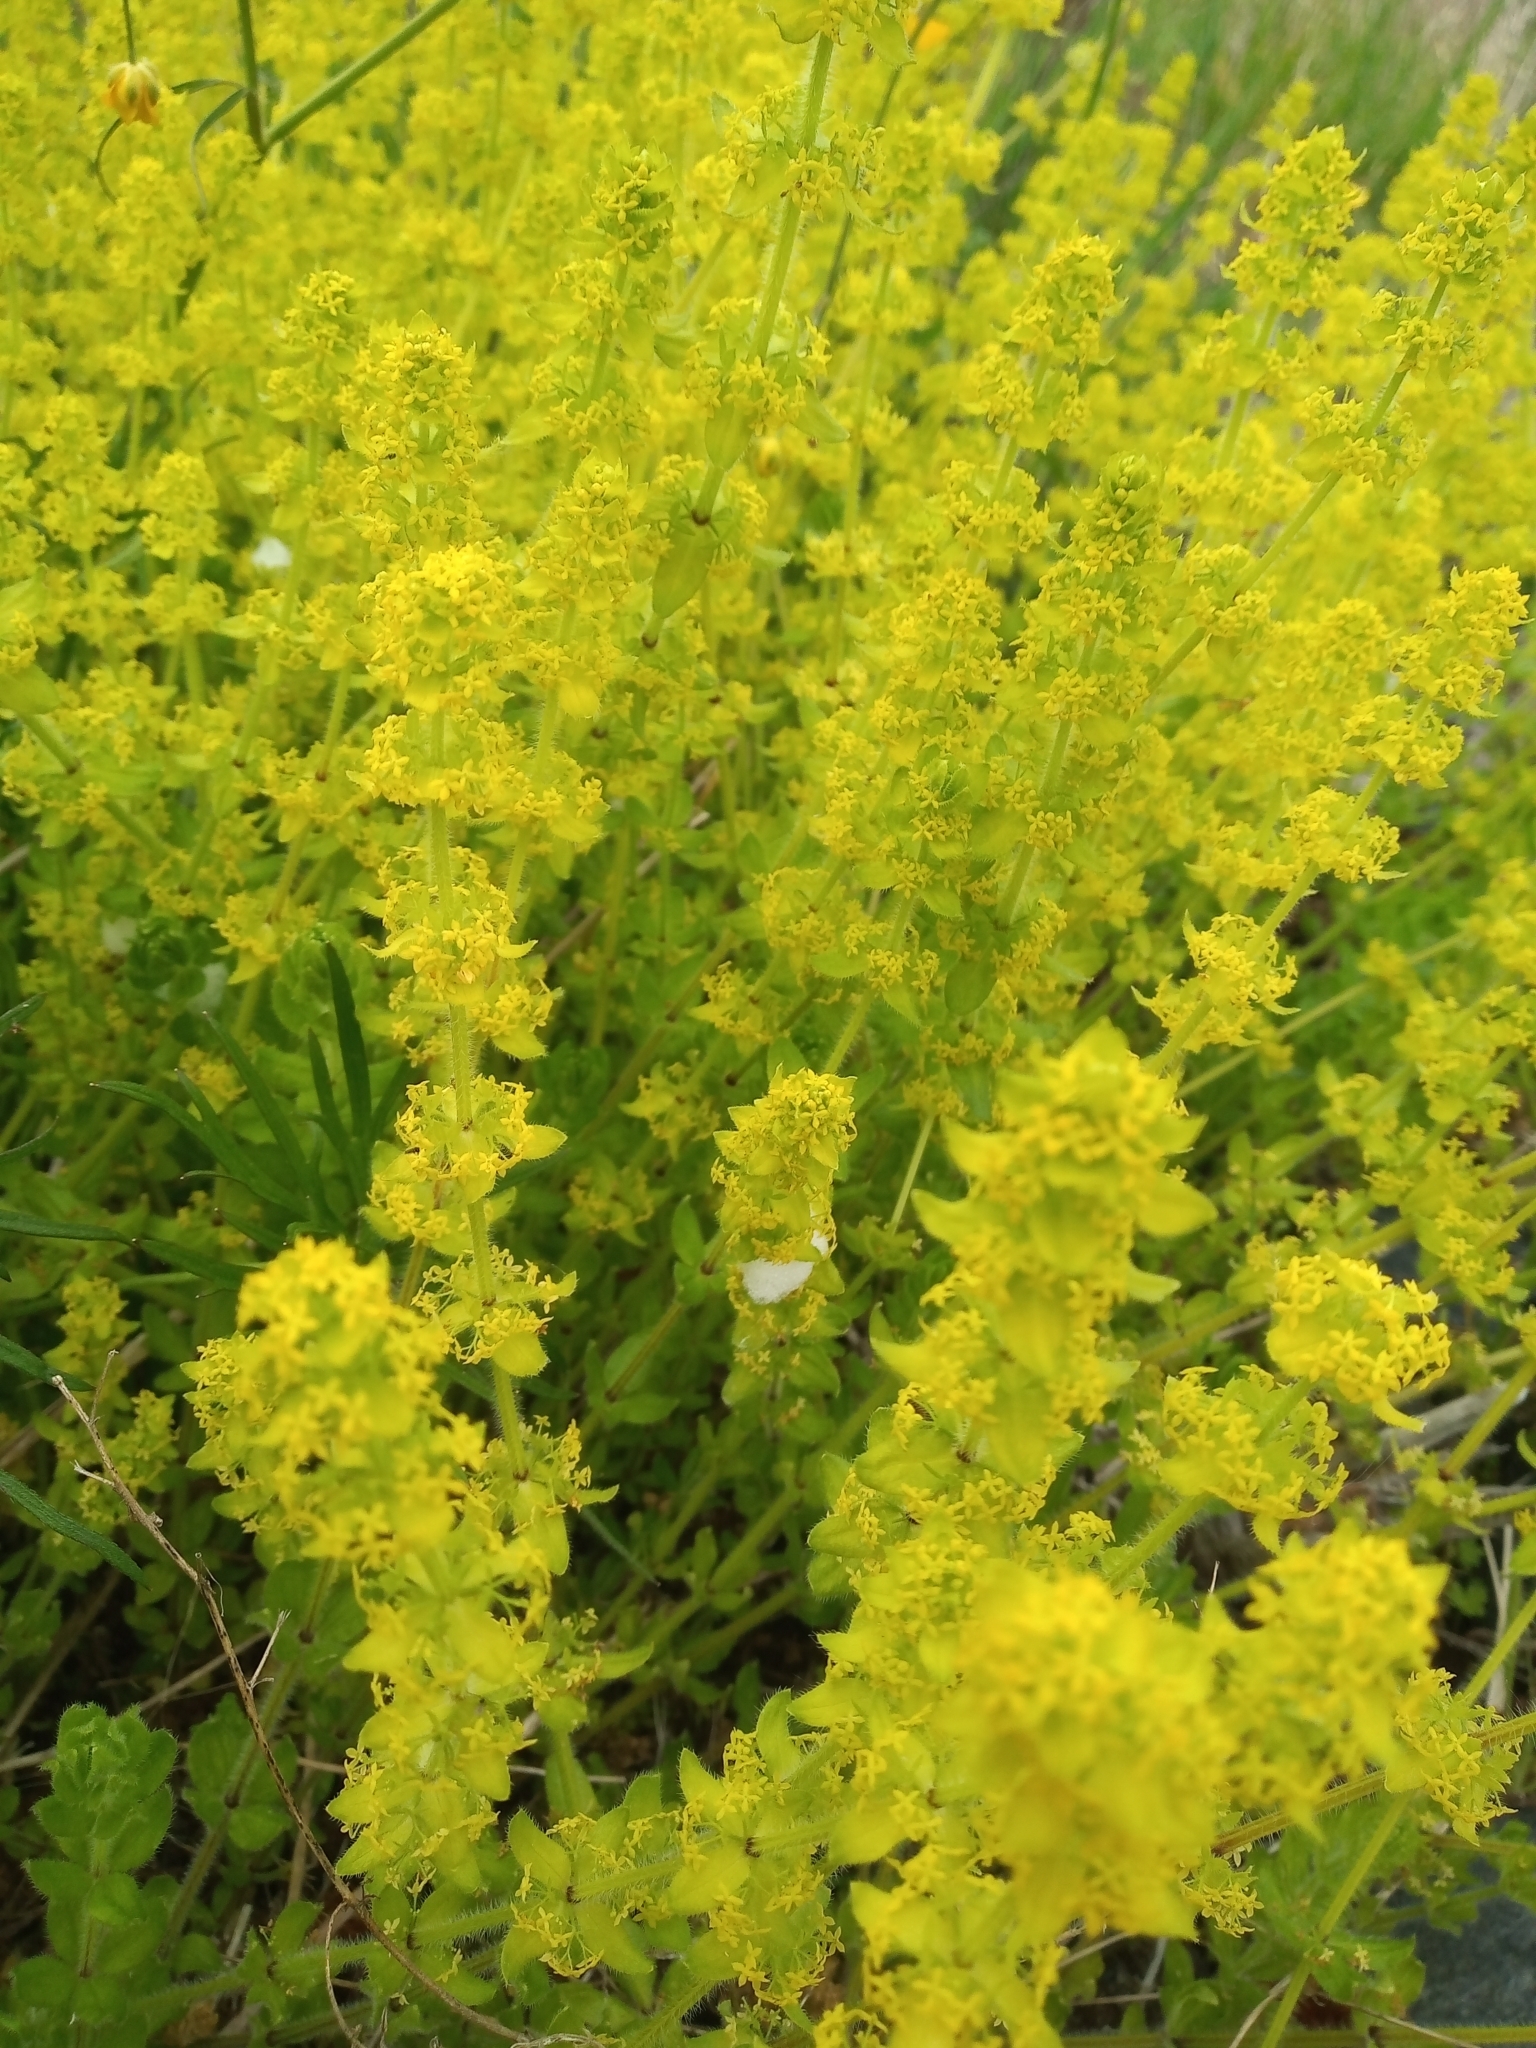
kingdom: Plantae
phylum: Tracheophyta
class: Magnoliopsida
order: Gentianales
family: Rubiaceae
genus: Cruciata
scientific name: Cruciata laevipes
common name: Crosswort
